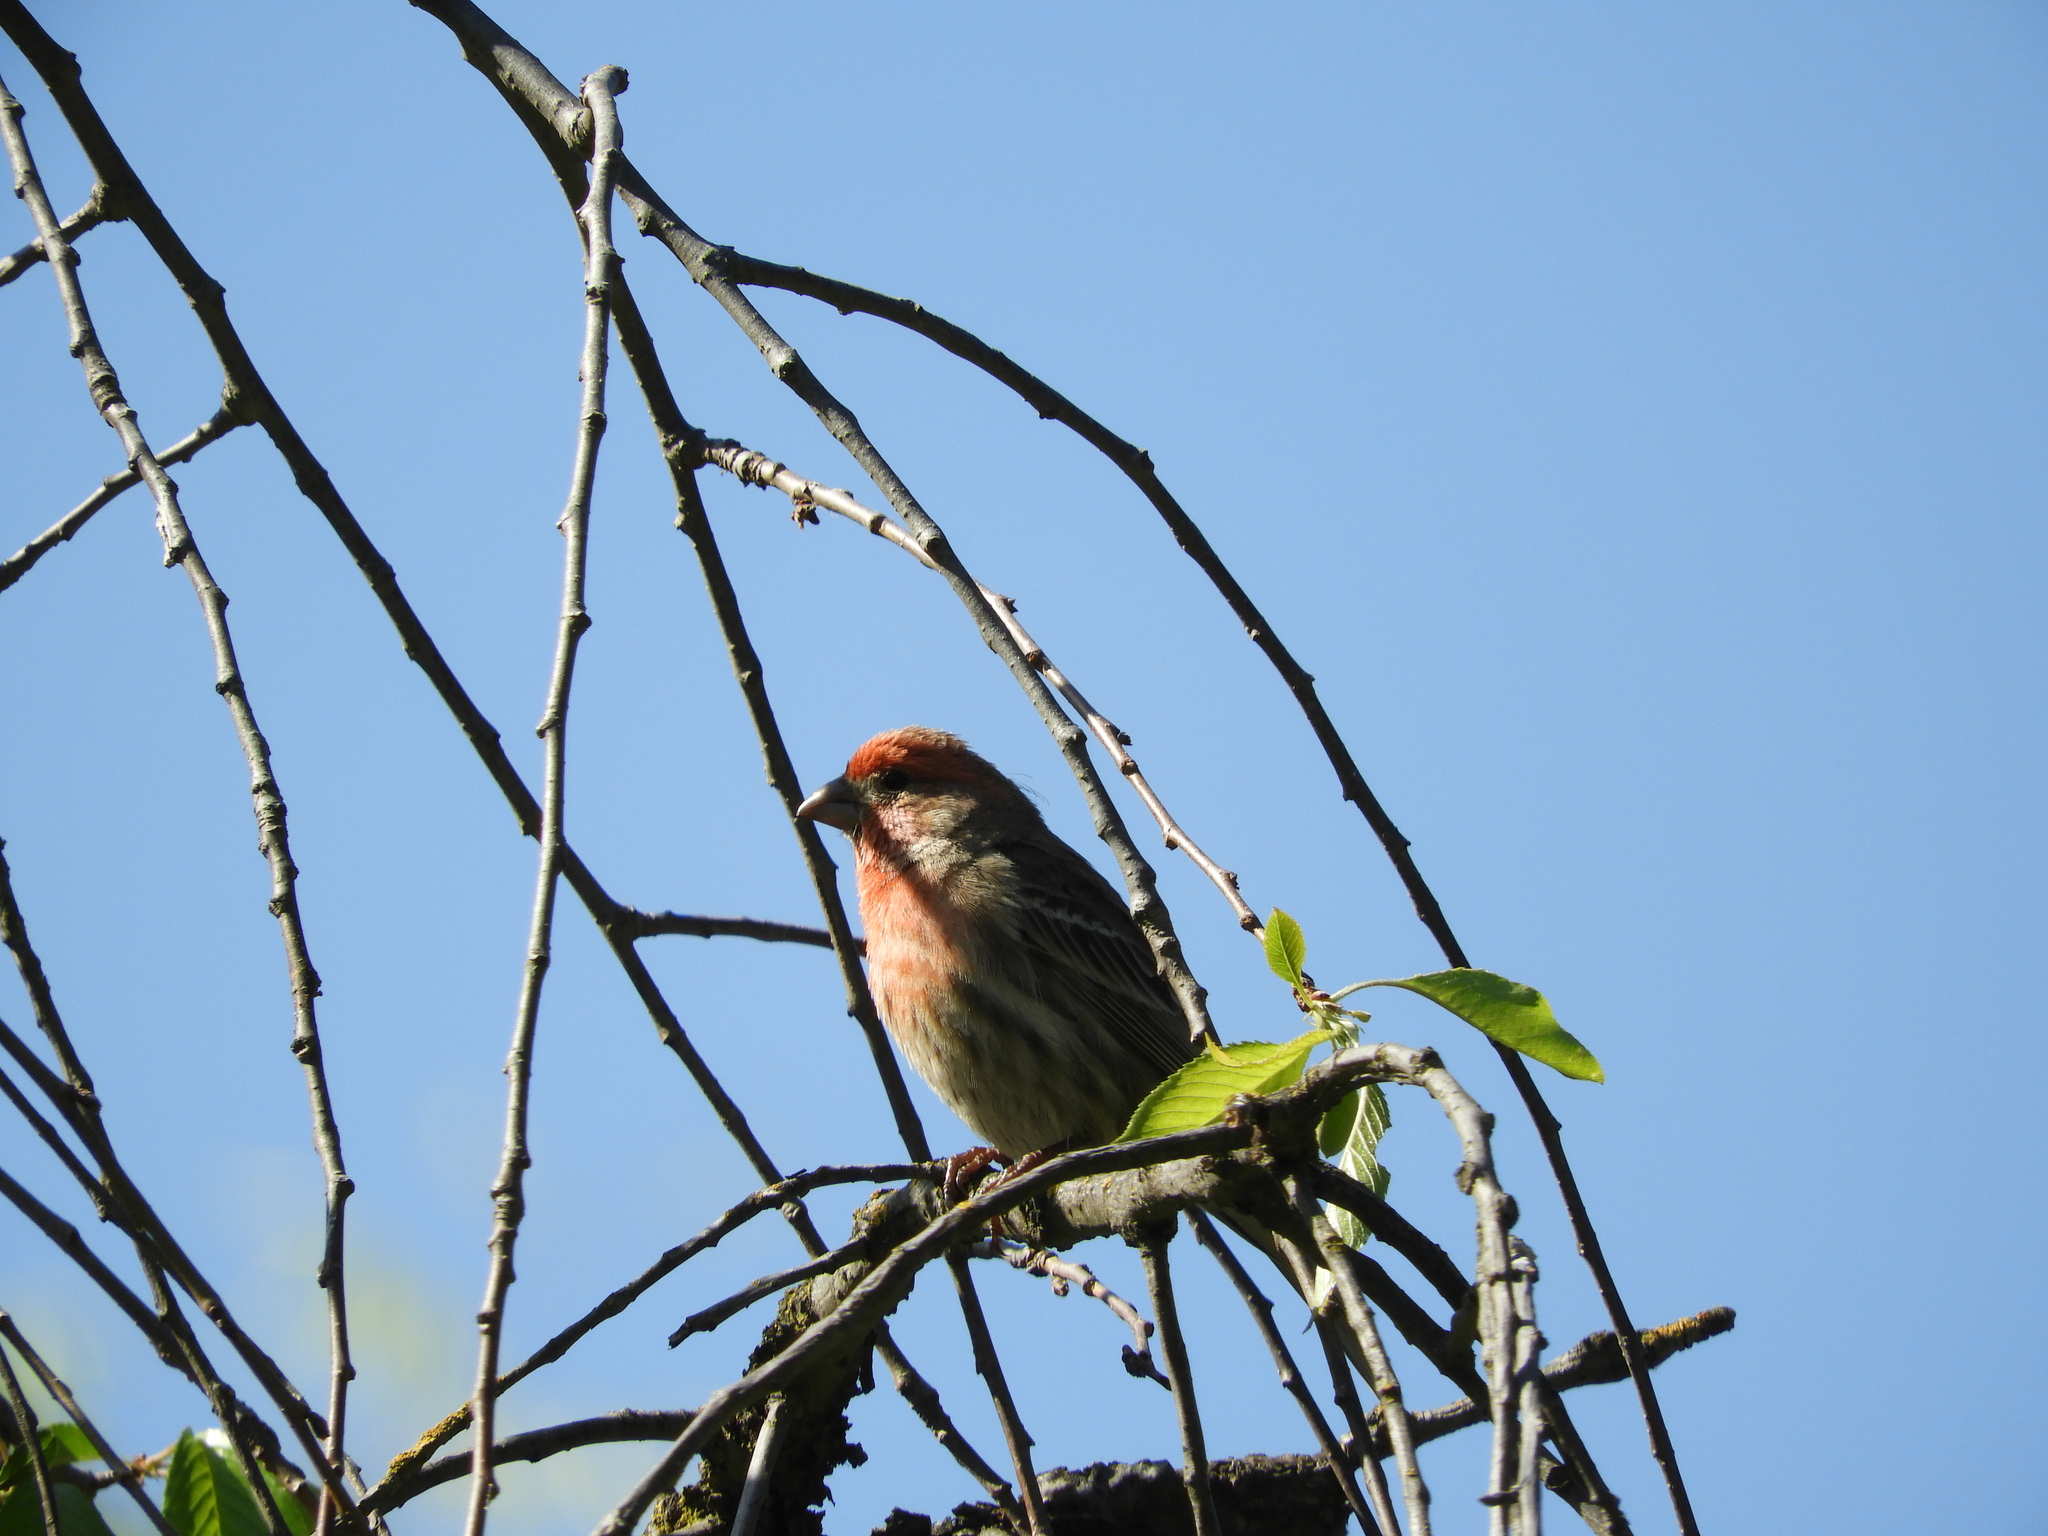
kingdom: Animalia
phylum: Chordata
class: Aves
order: Passeriformes
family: Fringillidae
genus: Haemorhous
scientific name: Haemorhous mexicanus
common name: House finch
